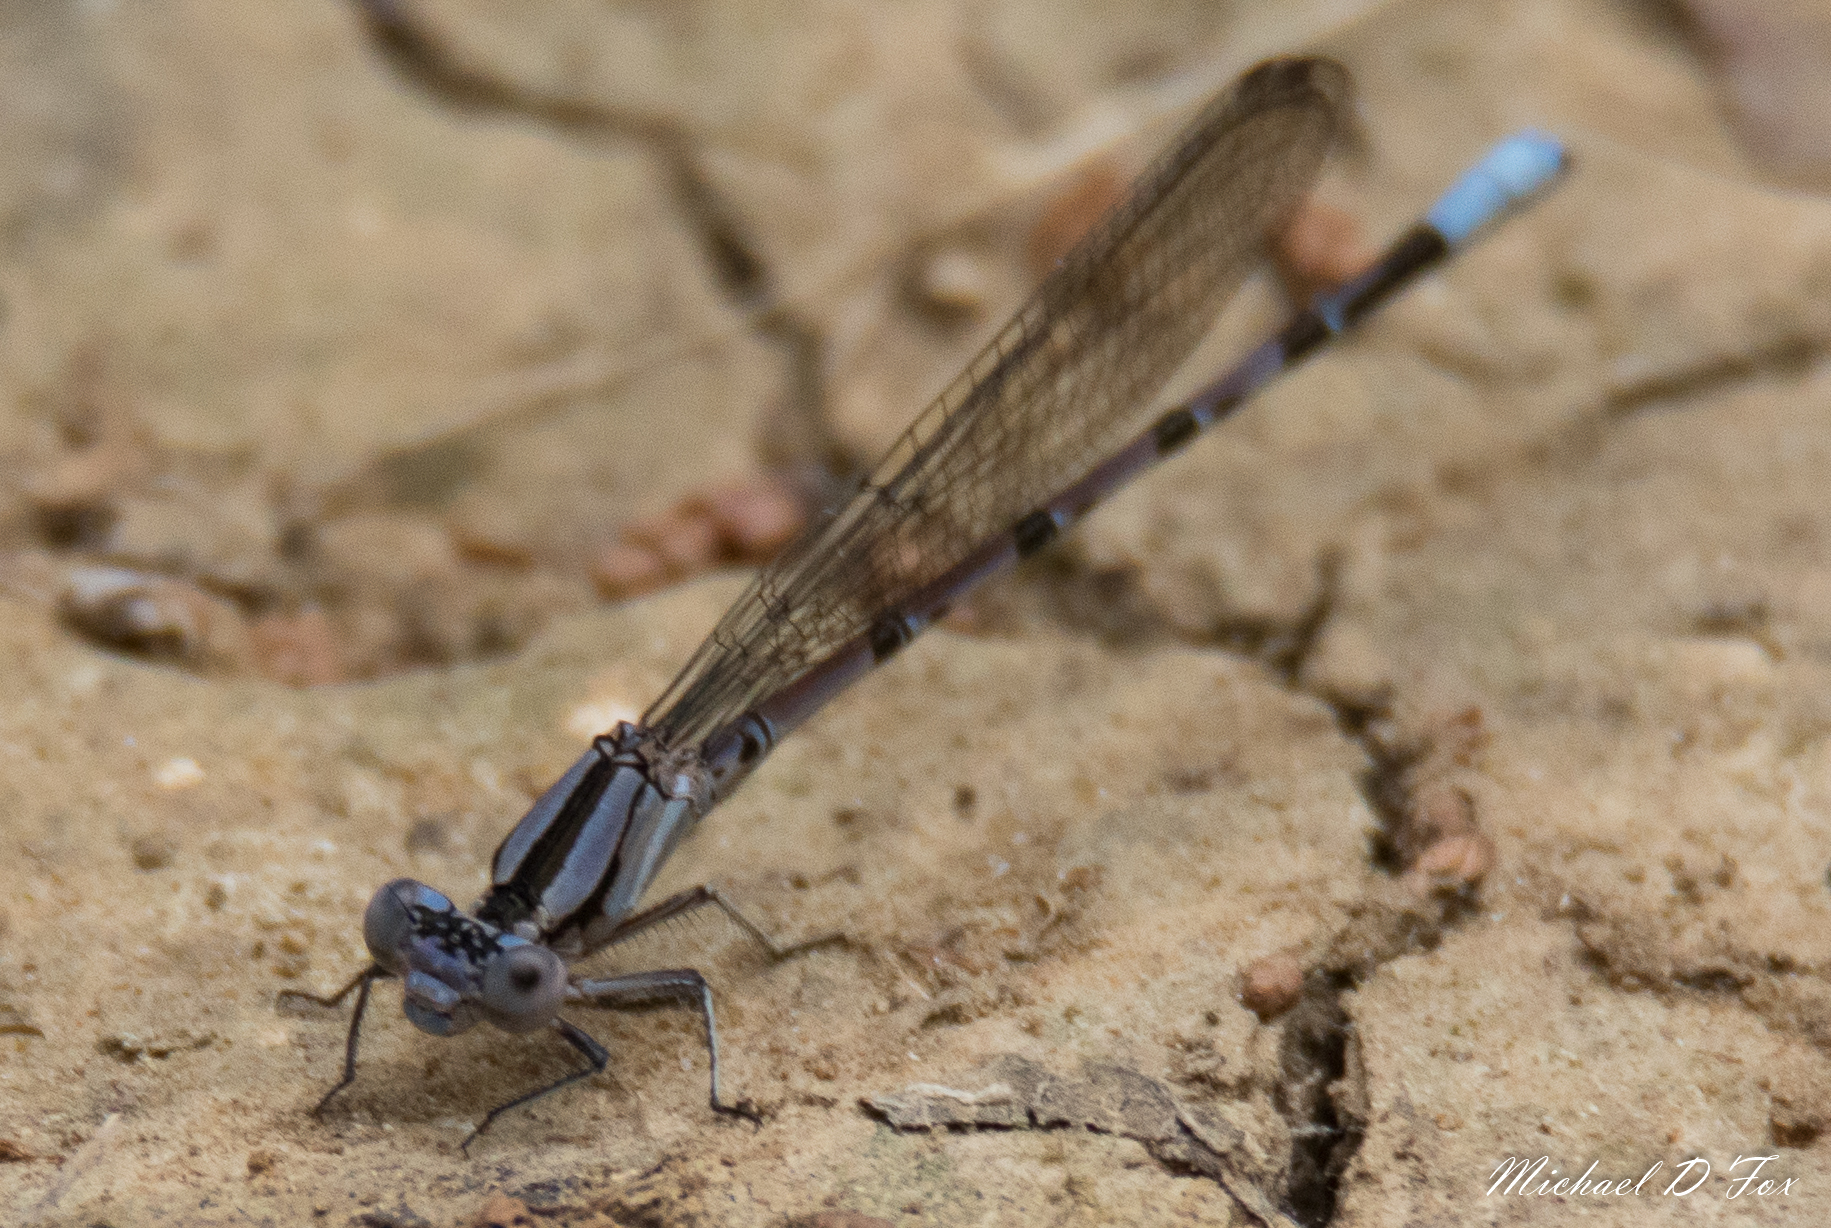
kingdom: Animalia
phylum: Arthropoda
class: Insecta
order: Odonata
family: Coenagrionidae
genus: Argia
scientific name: Argia funebris
